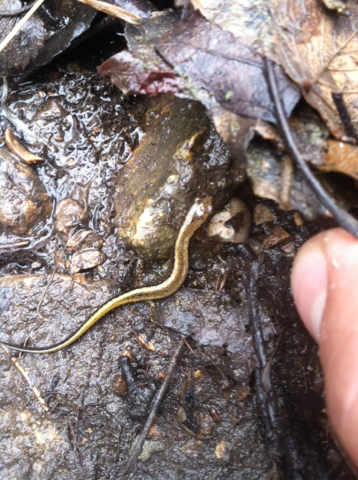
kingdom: Animalia
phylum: Chordata
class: Amphibia
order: Caudata
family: Plethodontidae
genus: Eurycea
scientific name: Eurycea cirrigera
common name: Southern two-lined salamander
